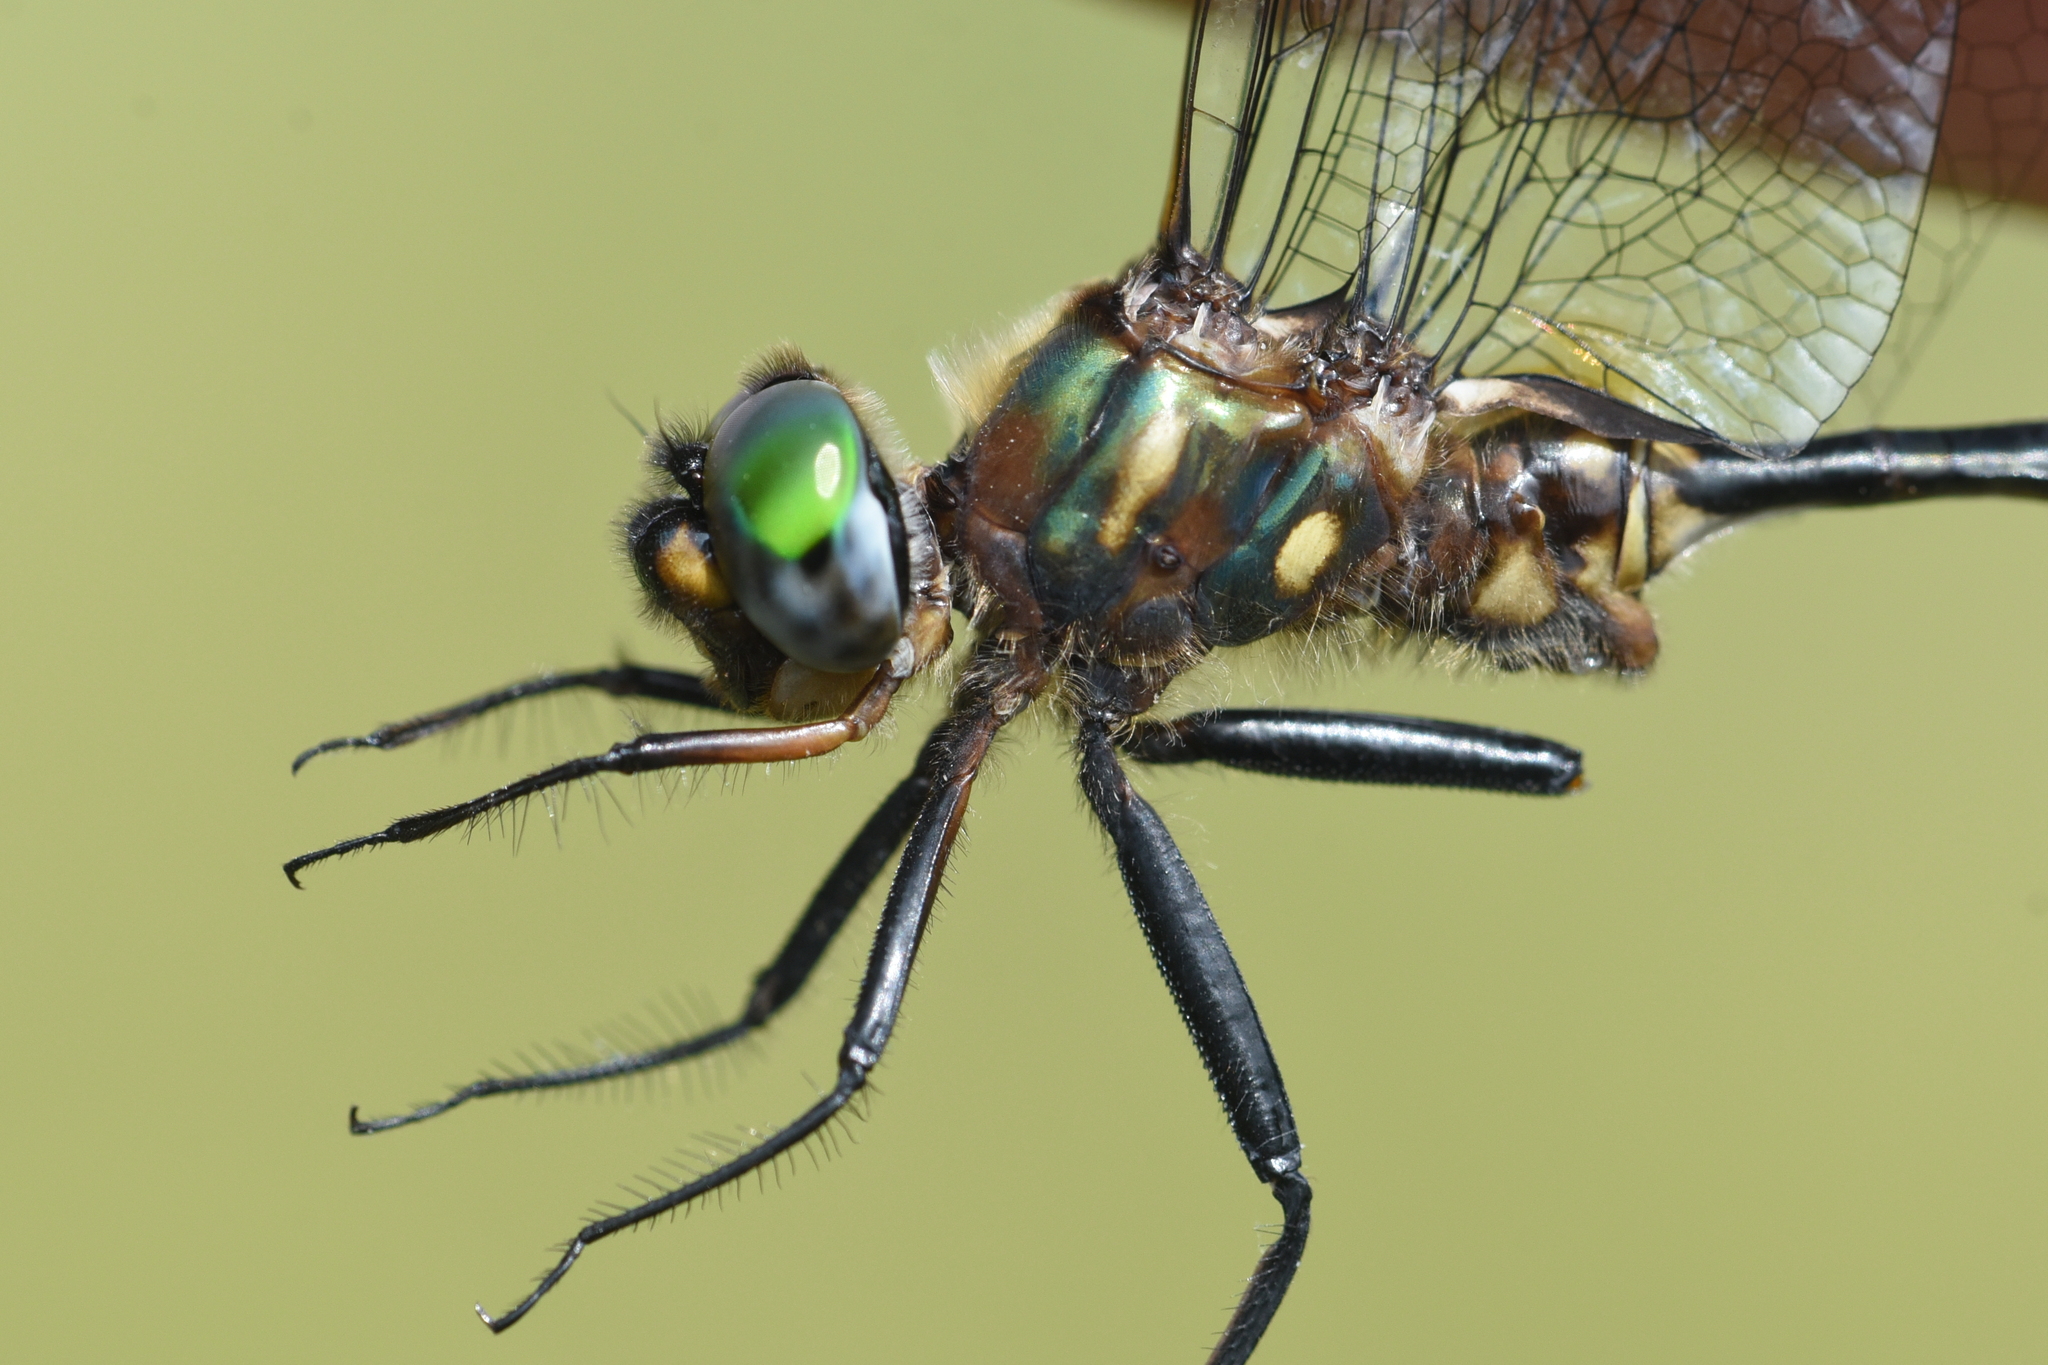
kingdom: Animalia
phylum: Arthropoda
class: Insecta
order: Odonata
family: Corduliidae
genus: Somatochlora
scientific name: Somatochlora walshii
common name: Brush-tipped emerald
